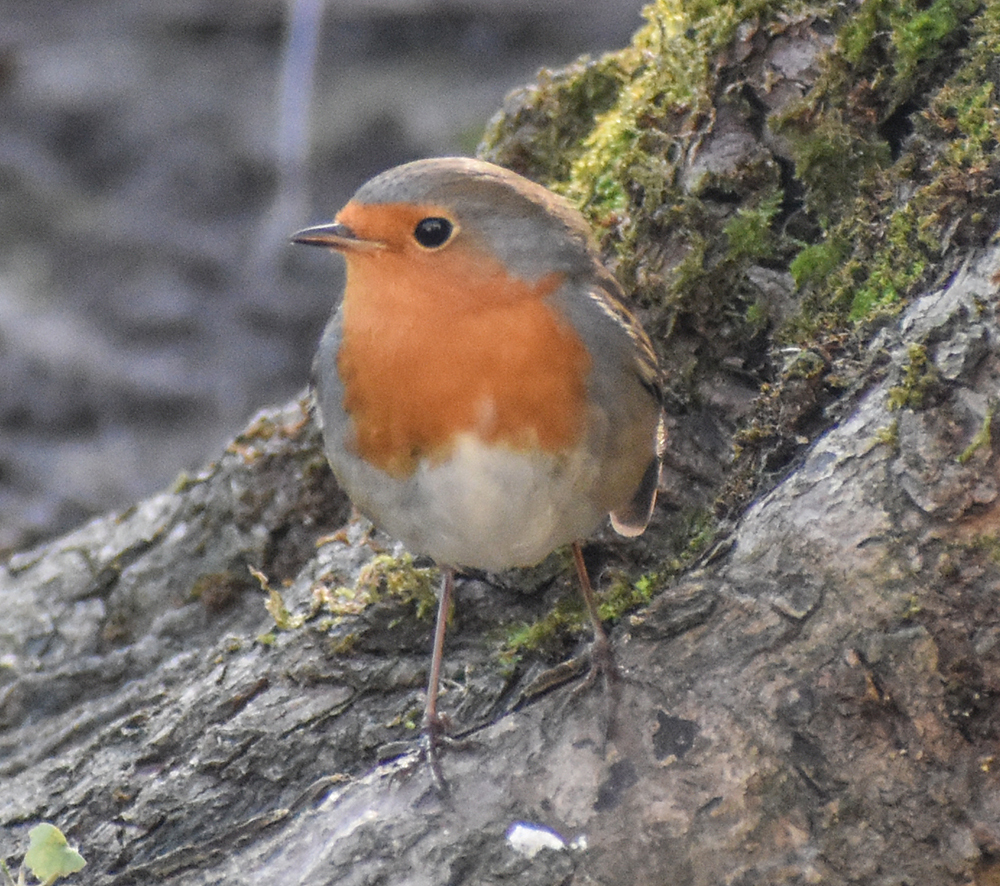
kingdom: Animalia
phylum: Chordata
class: Aves
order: Passeriformes
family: Muscicapidae
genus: Erithacus
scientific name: Erithacus rubecula
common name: European robin
